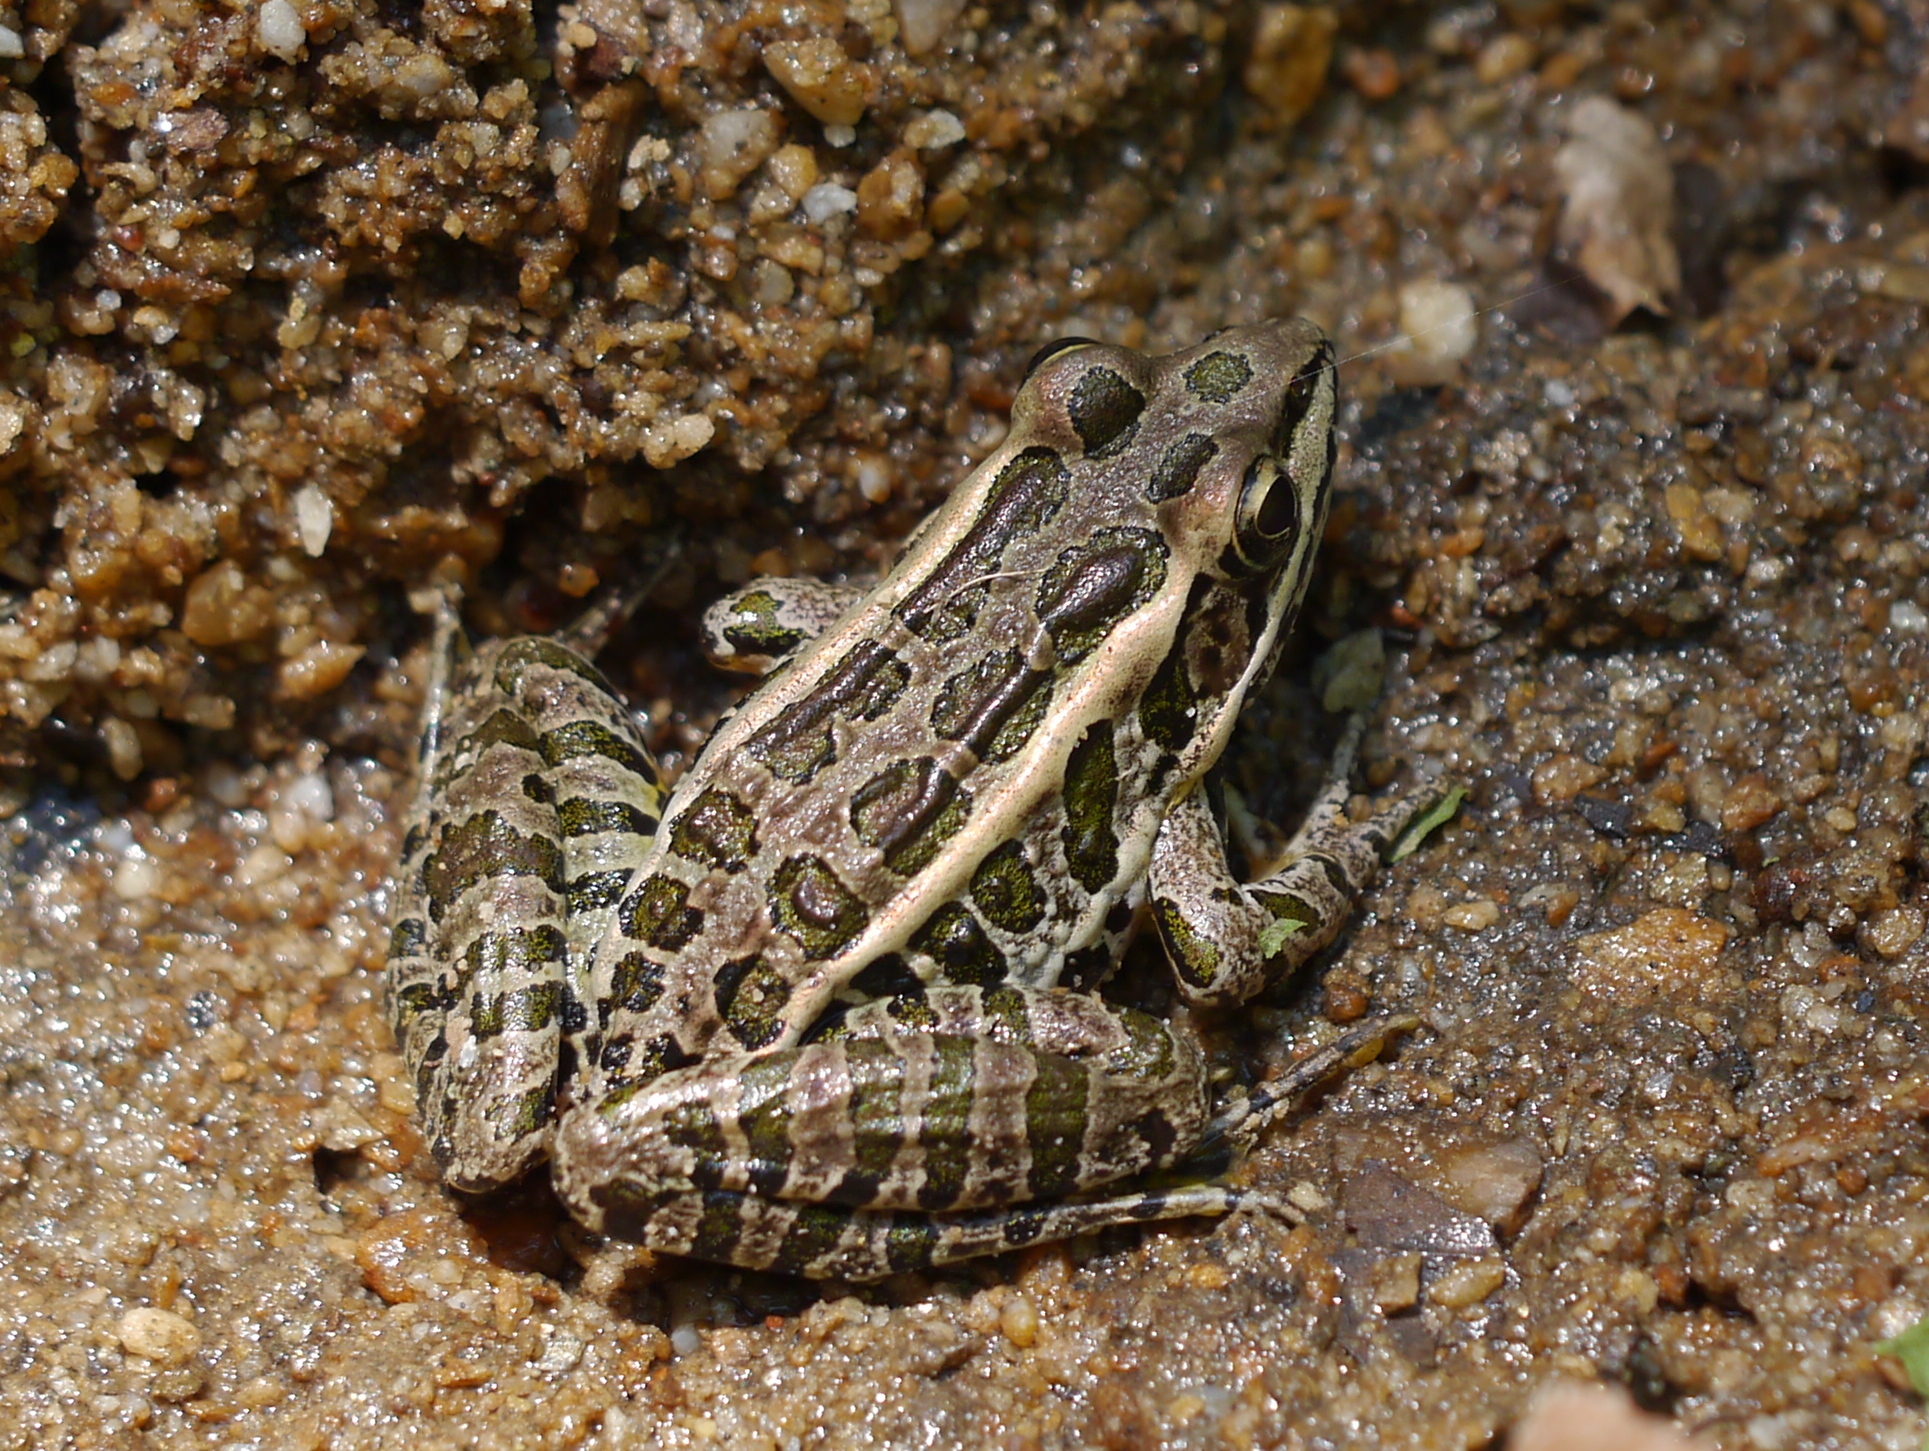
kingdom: Animalia
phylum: Chordata
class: Amphibia
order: Anura
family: Ranidae
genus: Lithobates
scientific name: Lithobates palustris
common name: Pickerel frog
